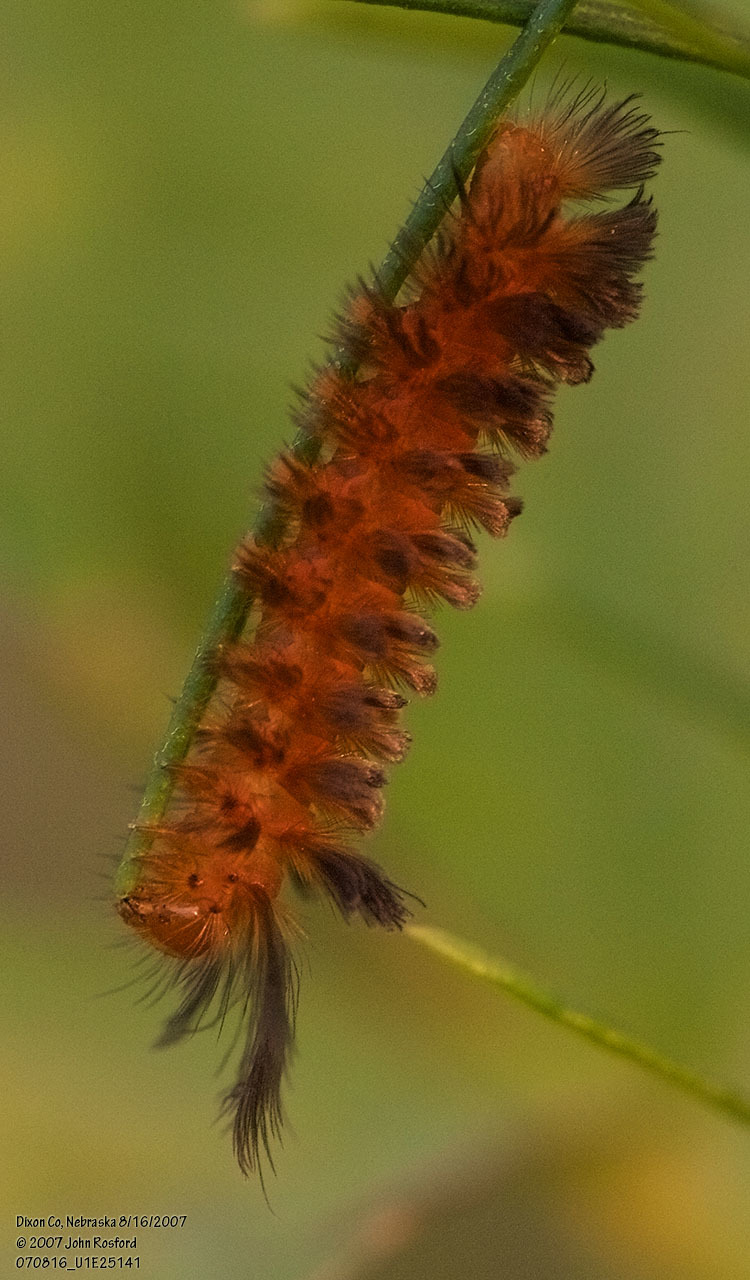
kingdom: Animalia
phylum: Arthropoda
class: Insecta
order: Lepidoptera
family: Erebidae
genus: Cycnia
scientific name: Cycnia collaris
